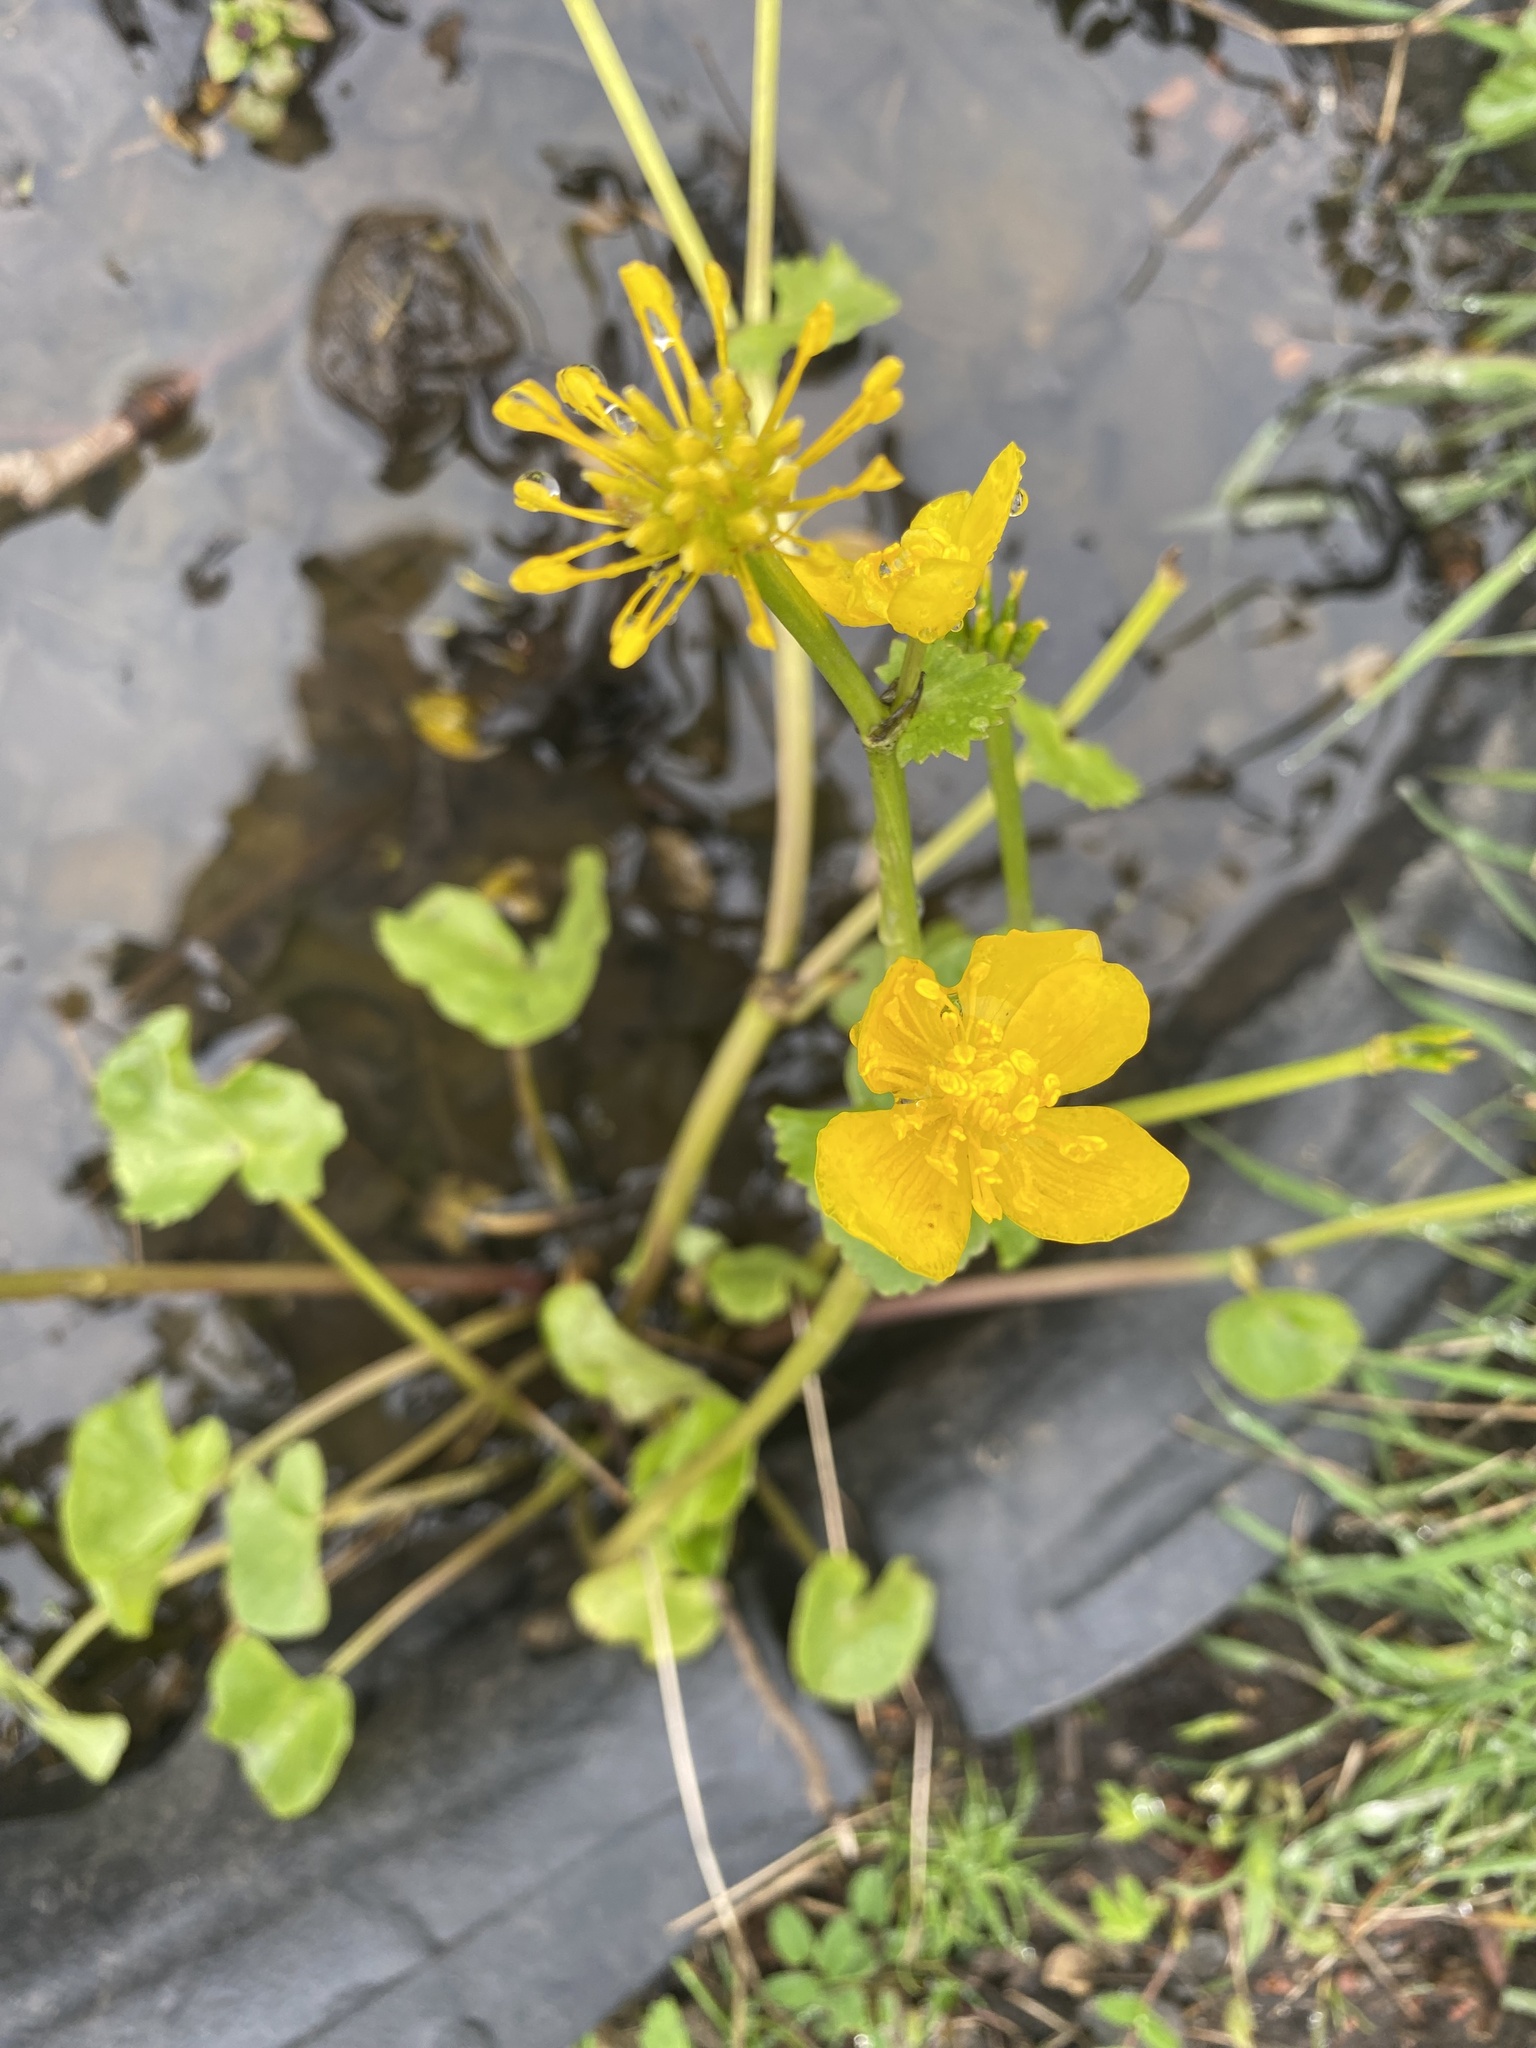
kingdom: Plantae
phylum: Tracheophyta
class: Magnoliopsida
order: Ranunculales
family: Ranunculaceae
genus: Caltha
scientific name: Caltha palustris
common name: Marsh marigold
